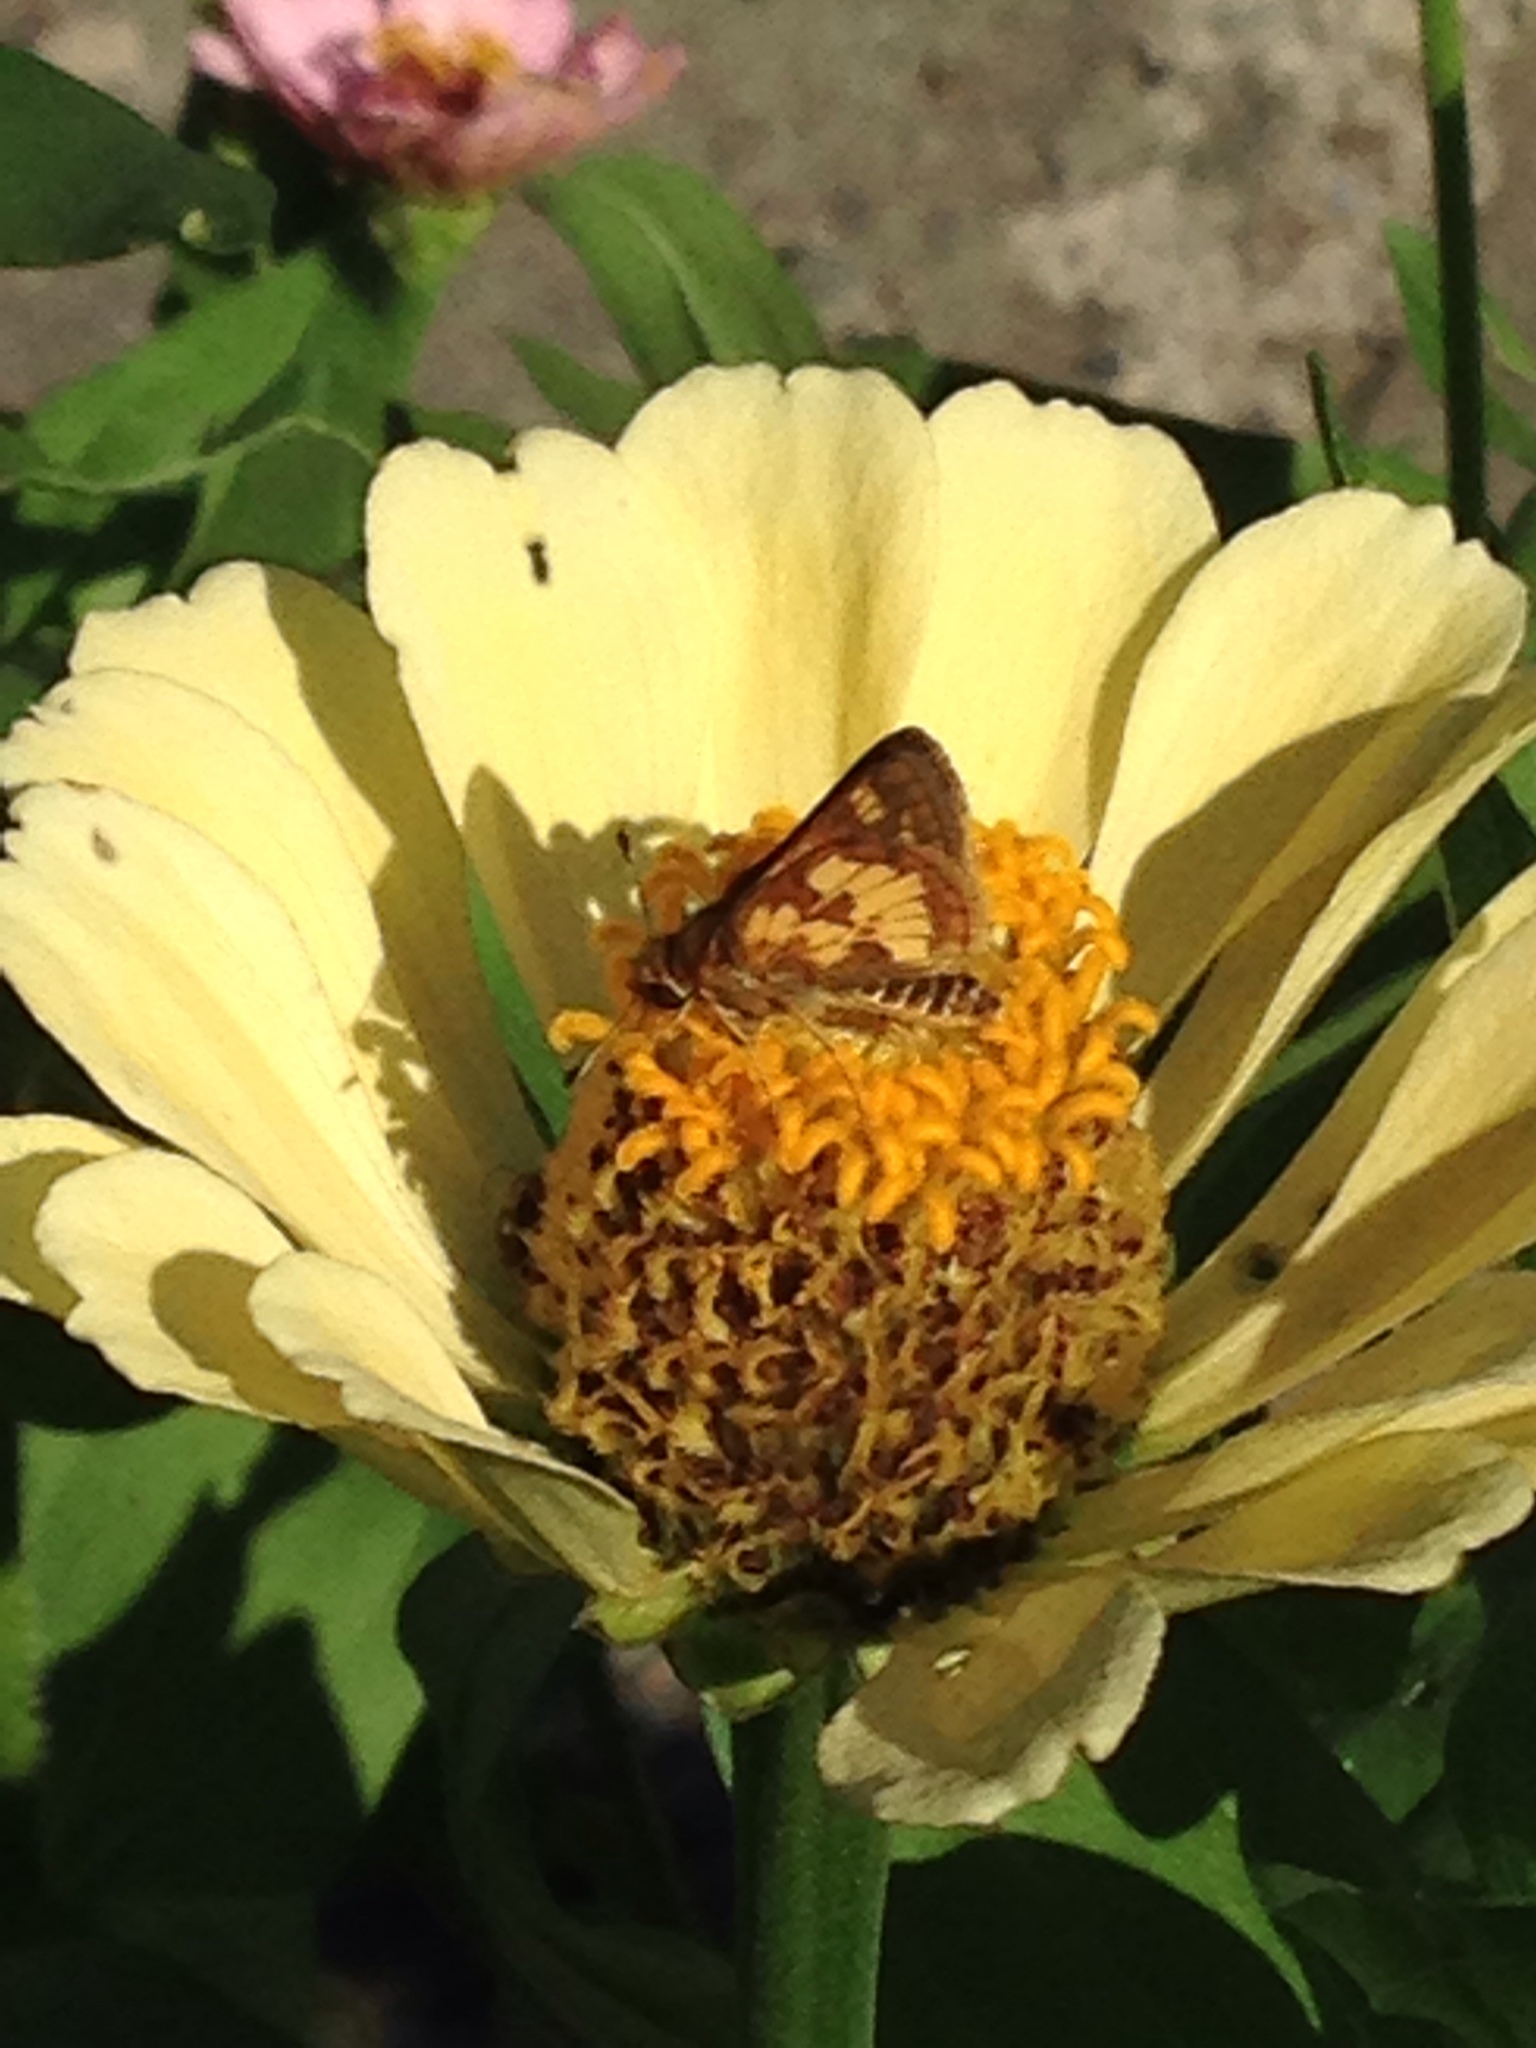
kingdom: Animalia
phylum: Arthropoda
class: Insecta
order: Lepidoptera
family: Hesperiidae
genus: Polites
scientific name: Polites coras
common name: Peck's skipper
